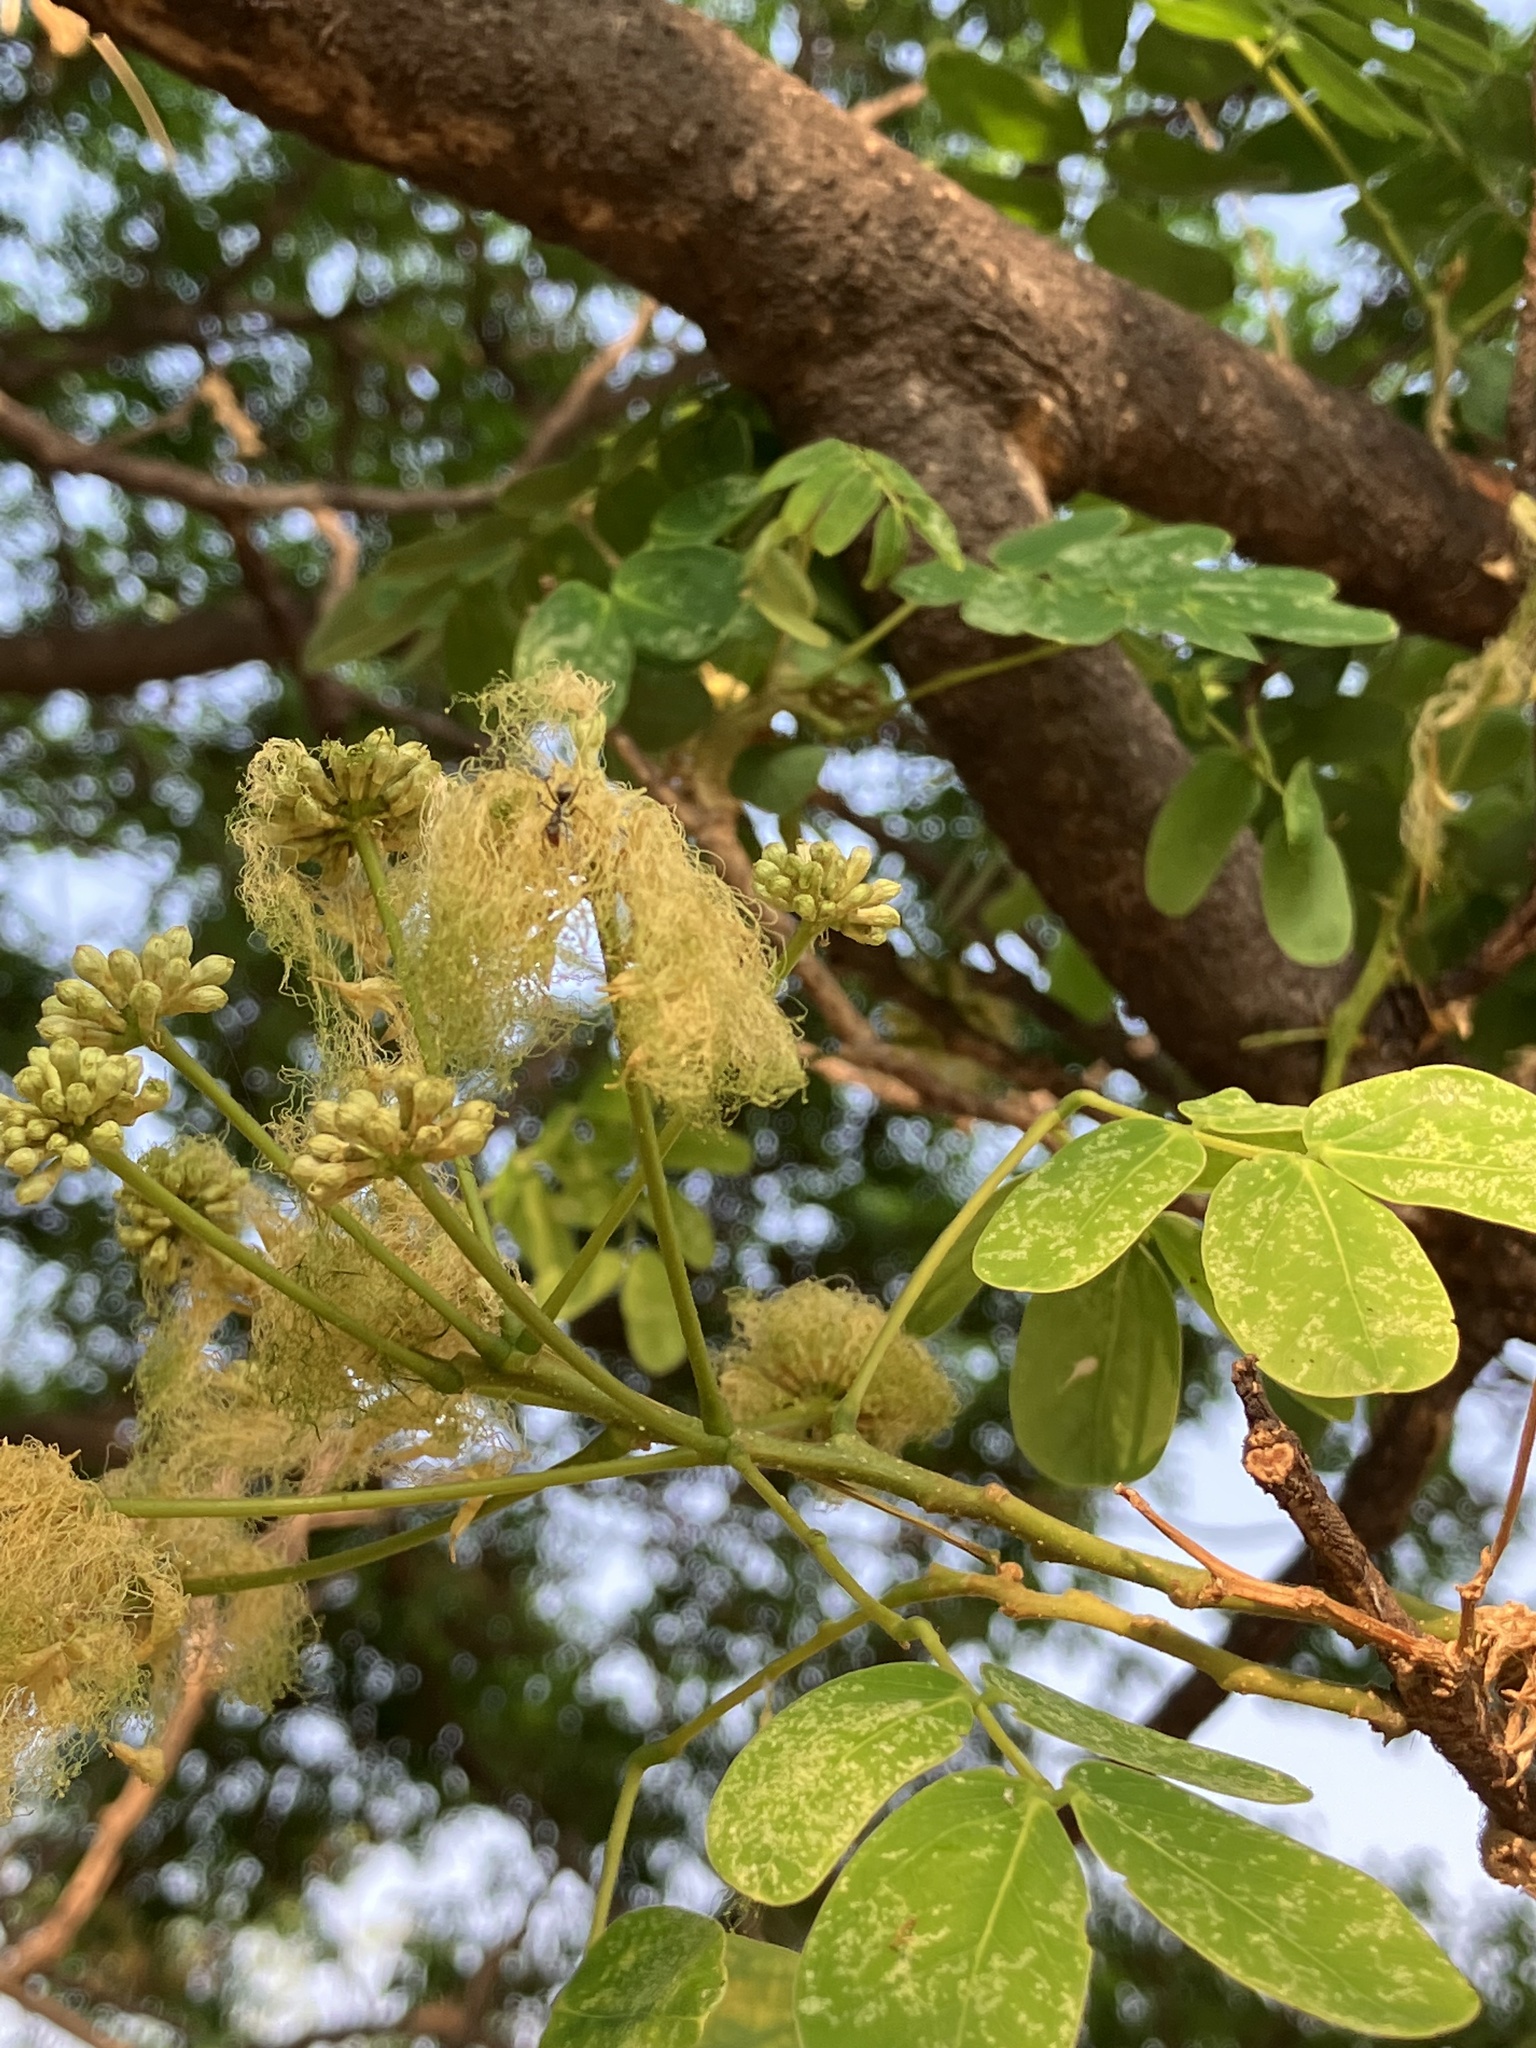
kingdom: Plantae
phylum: Tracheophyta
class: Magnoliopsida
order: Fabales
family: Fabaceae
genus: Albizia
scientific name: Albizia lebbeck
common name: Woman's tongue
